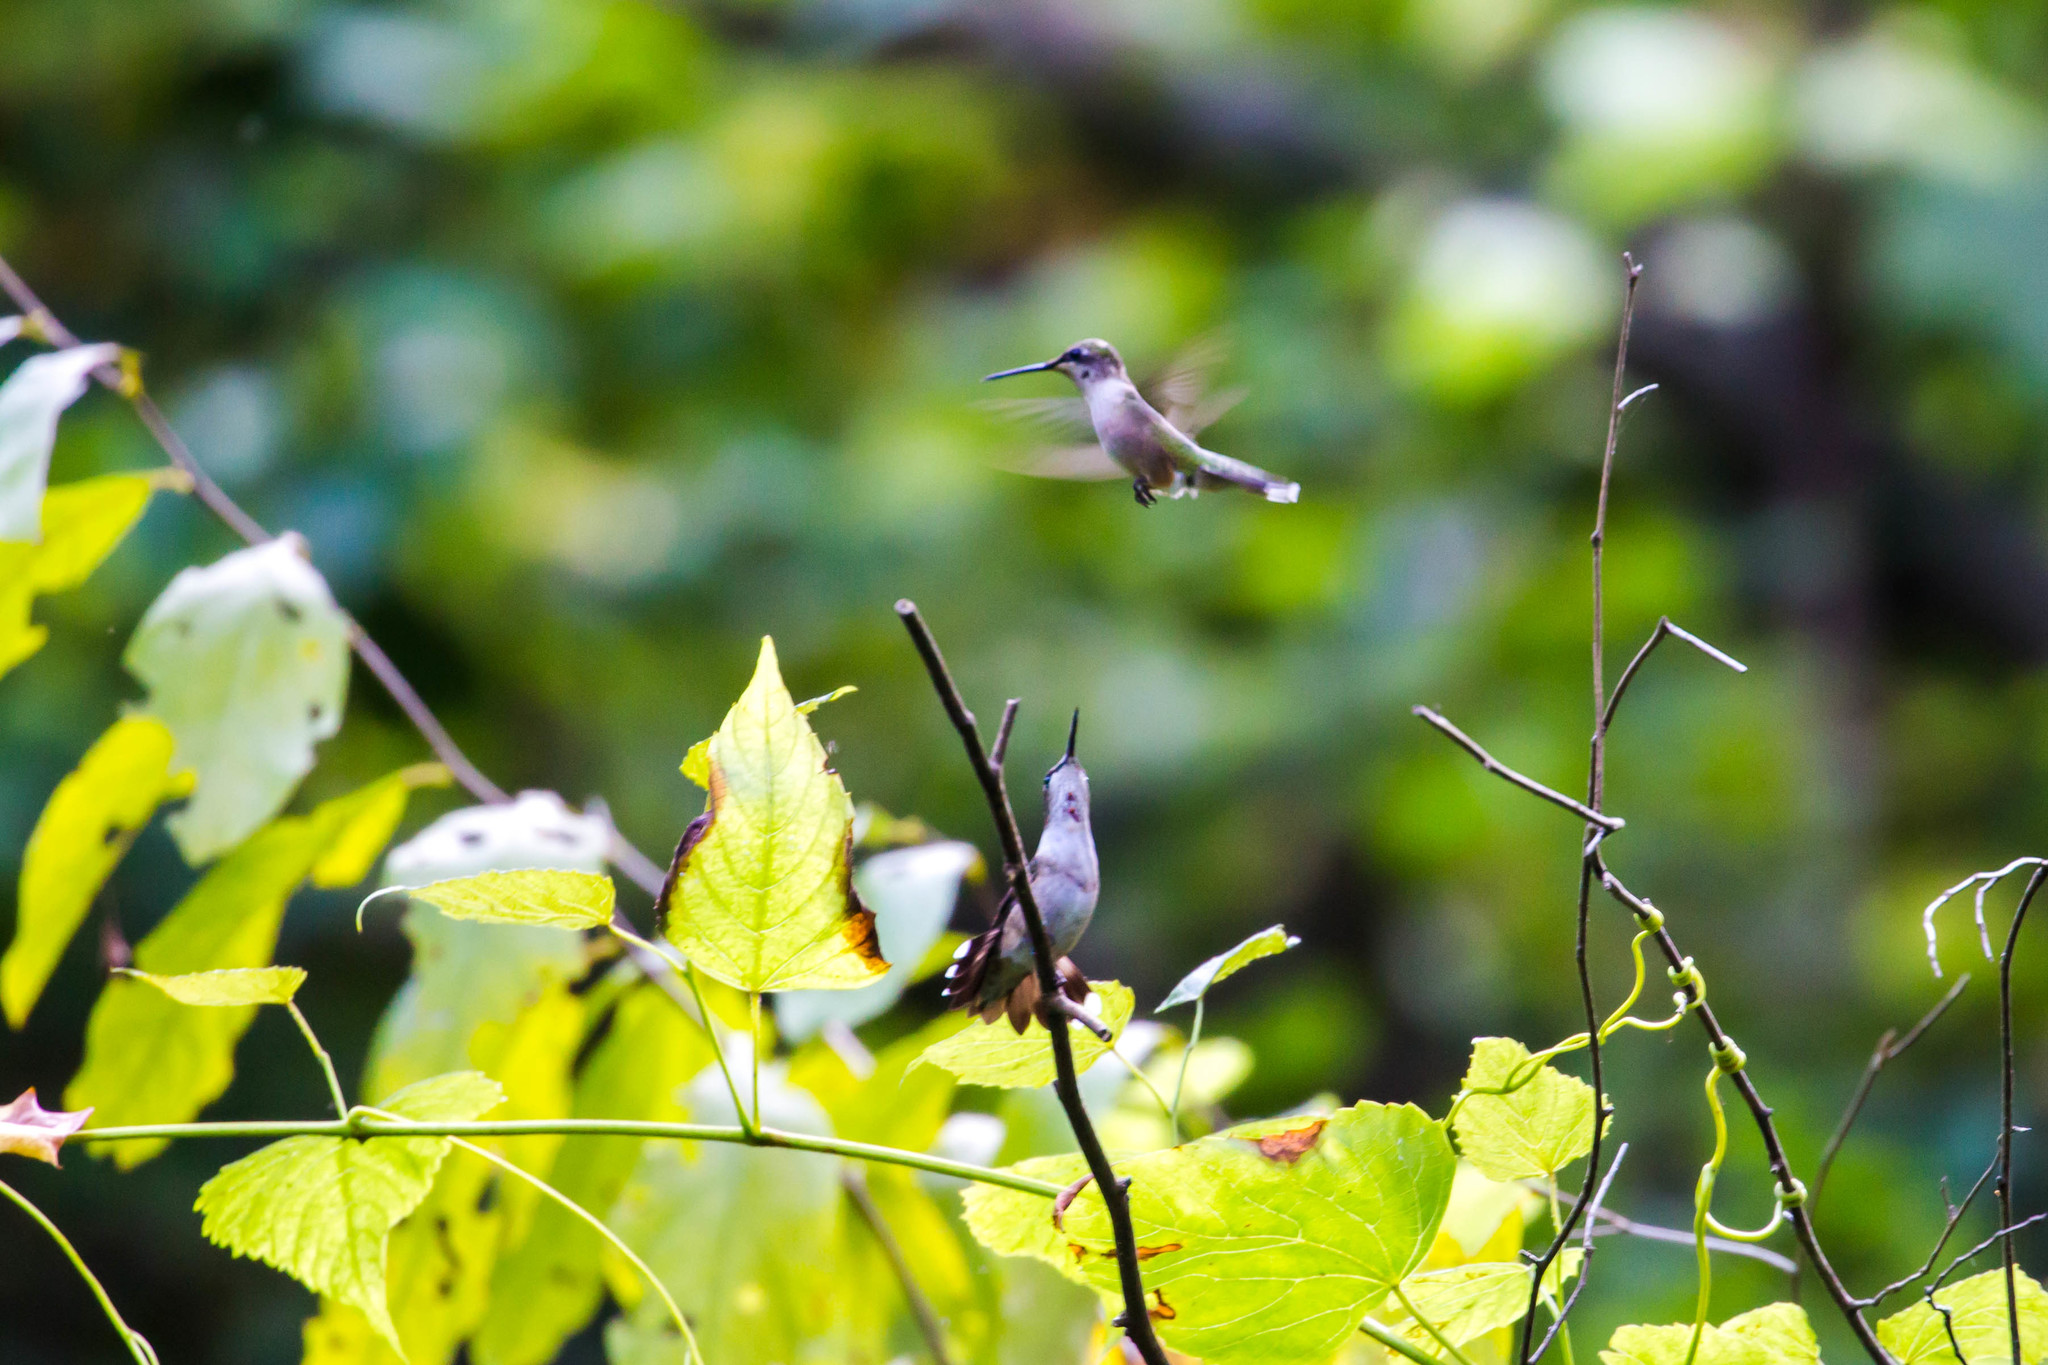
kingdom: Animalia
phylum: Chordata
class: Aves
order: Apodiformes
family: Trochilidae
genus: Archilochus
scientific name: Archilochus colubris
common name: Ruby-throated hummingbird
